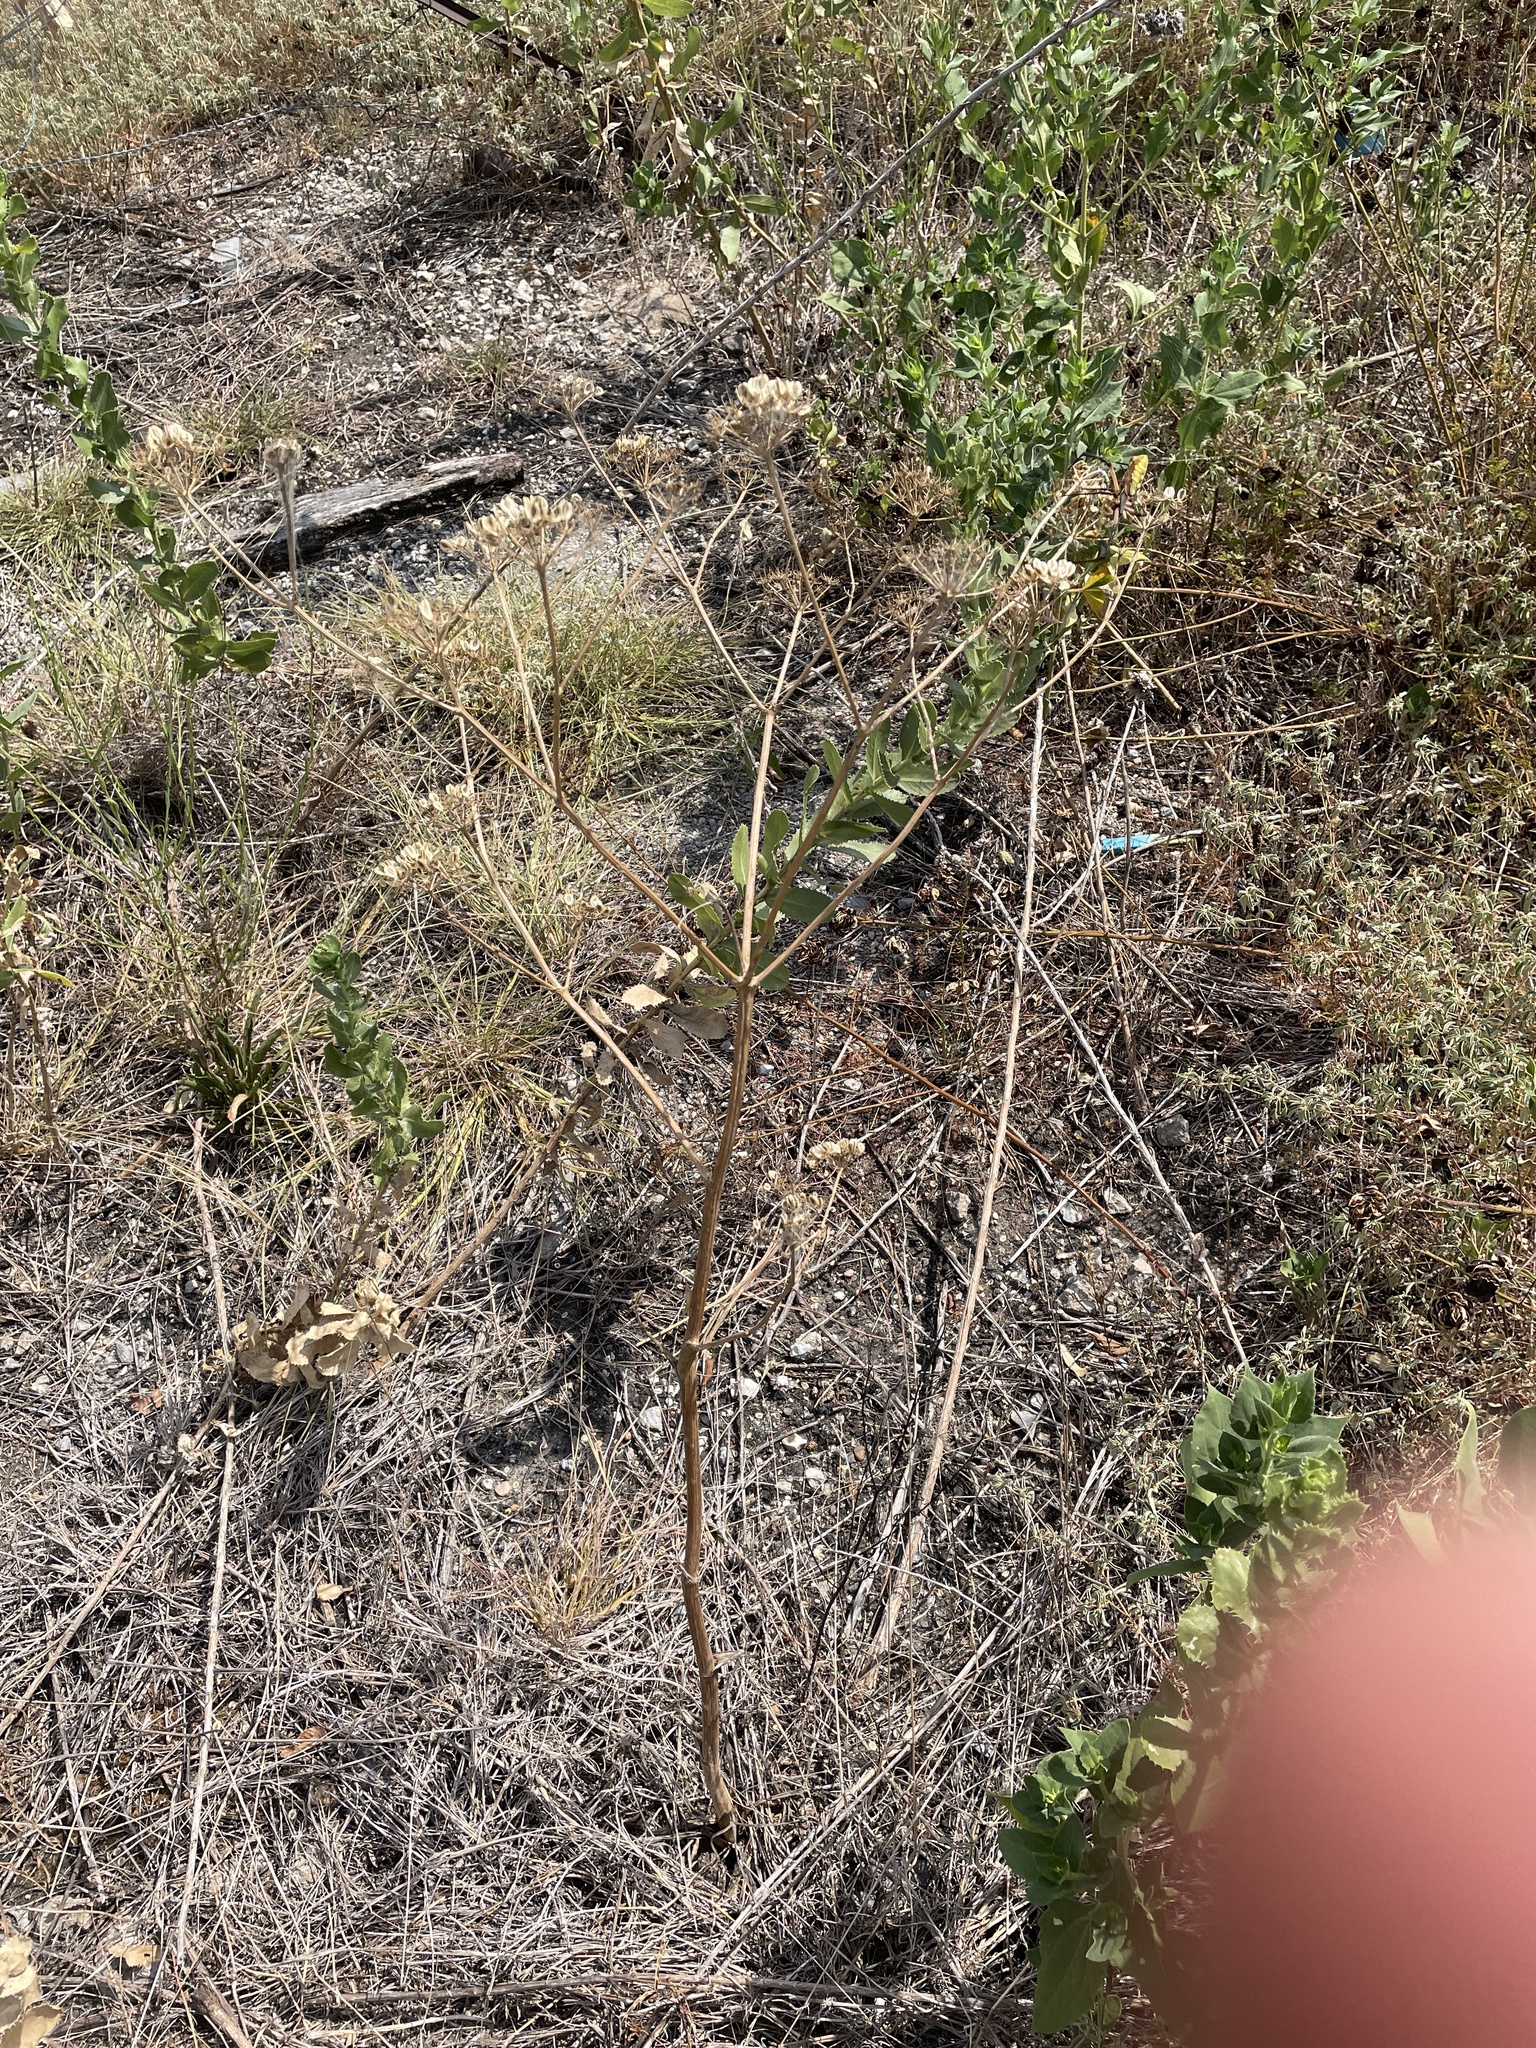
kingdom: Plantae
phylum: Tracheophyta
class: Magnoliopsida
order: Apiales
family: Apiaceae
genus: Polytaenia
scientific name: Polytaenia texana
